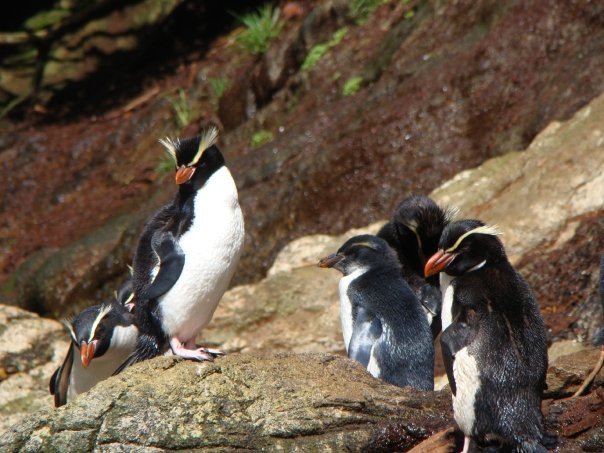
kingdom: Animalia
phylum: Chordata
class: Aves
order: Sphenisciformes
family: Spheniscidae
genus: Eudyptes
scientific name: Eudyptes robustus
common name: Snares penguin
